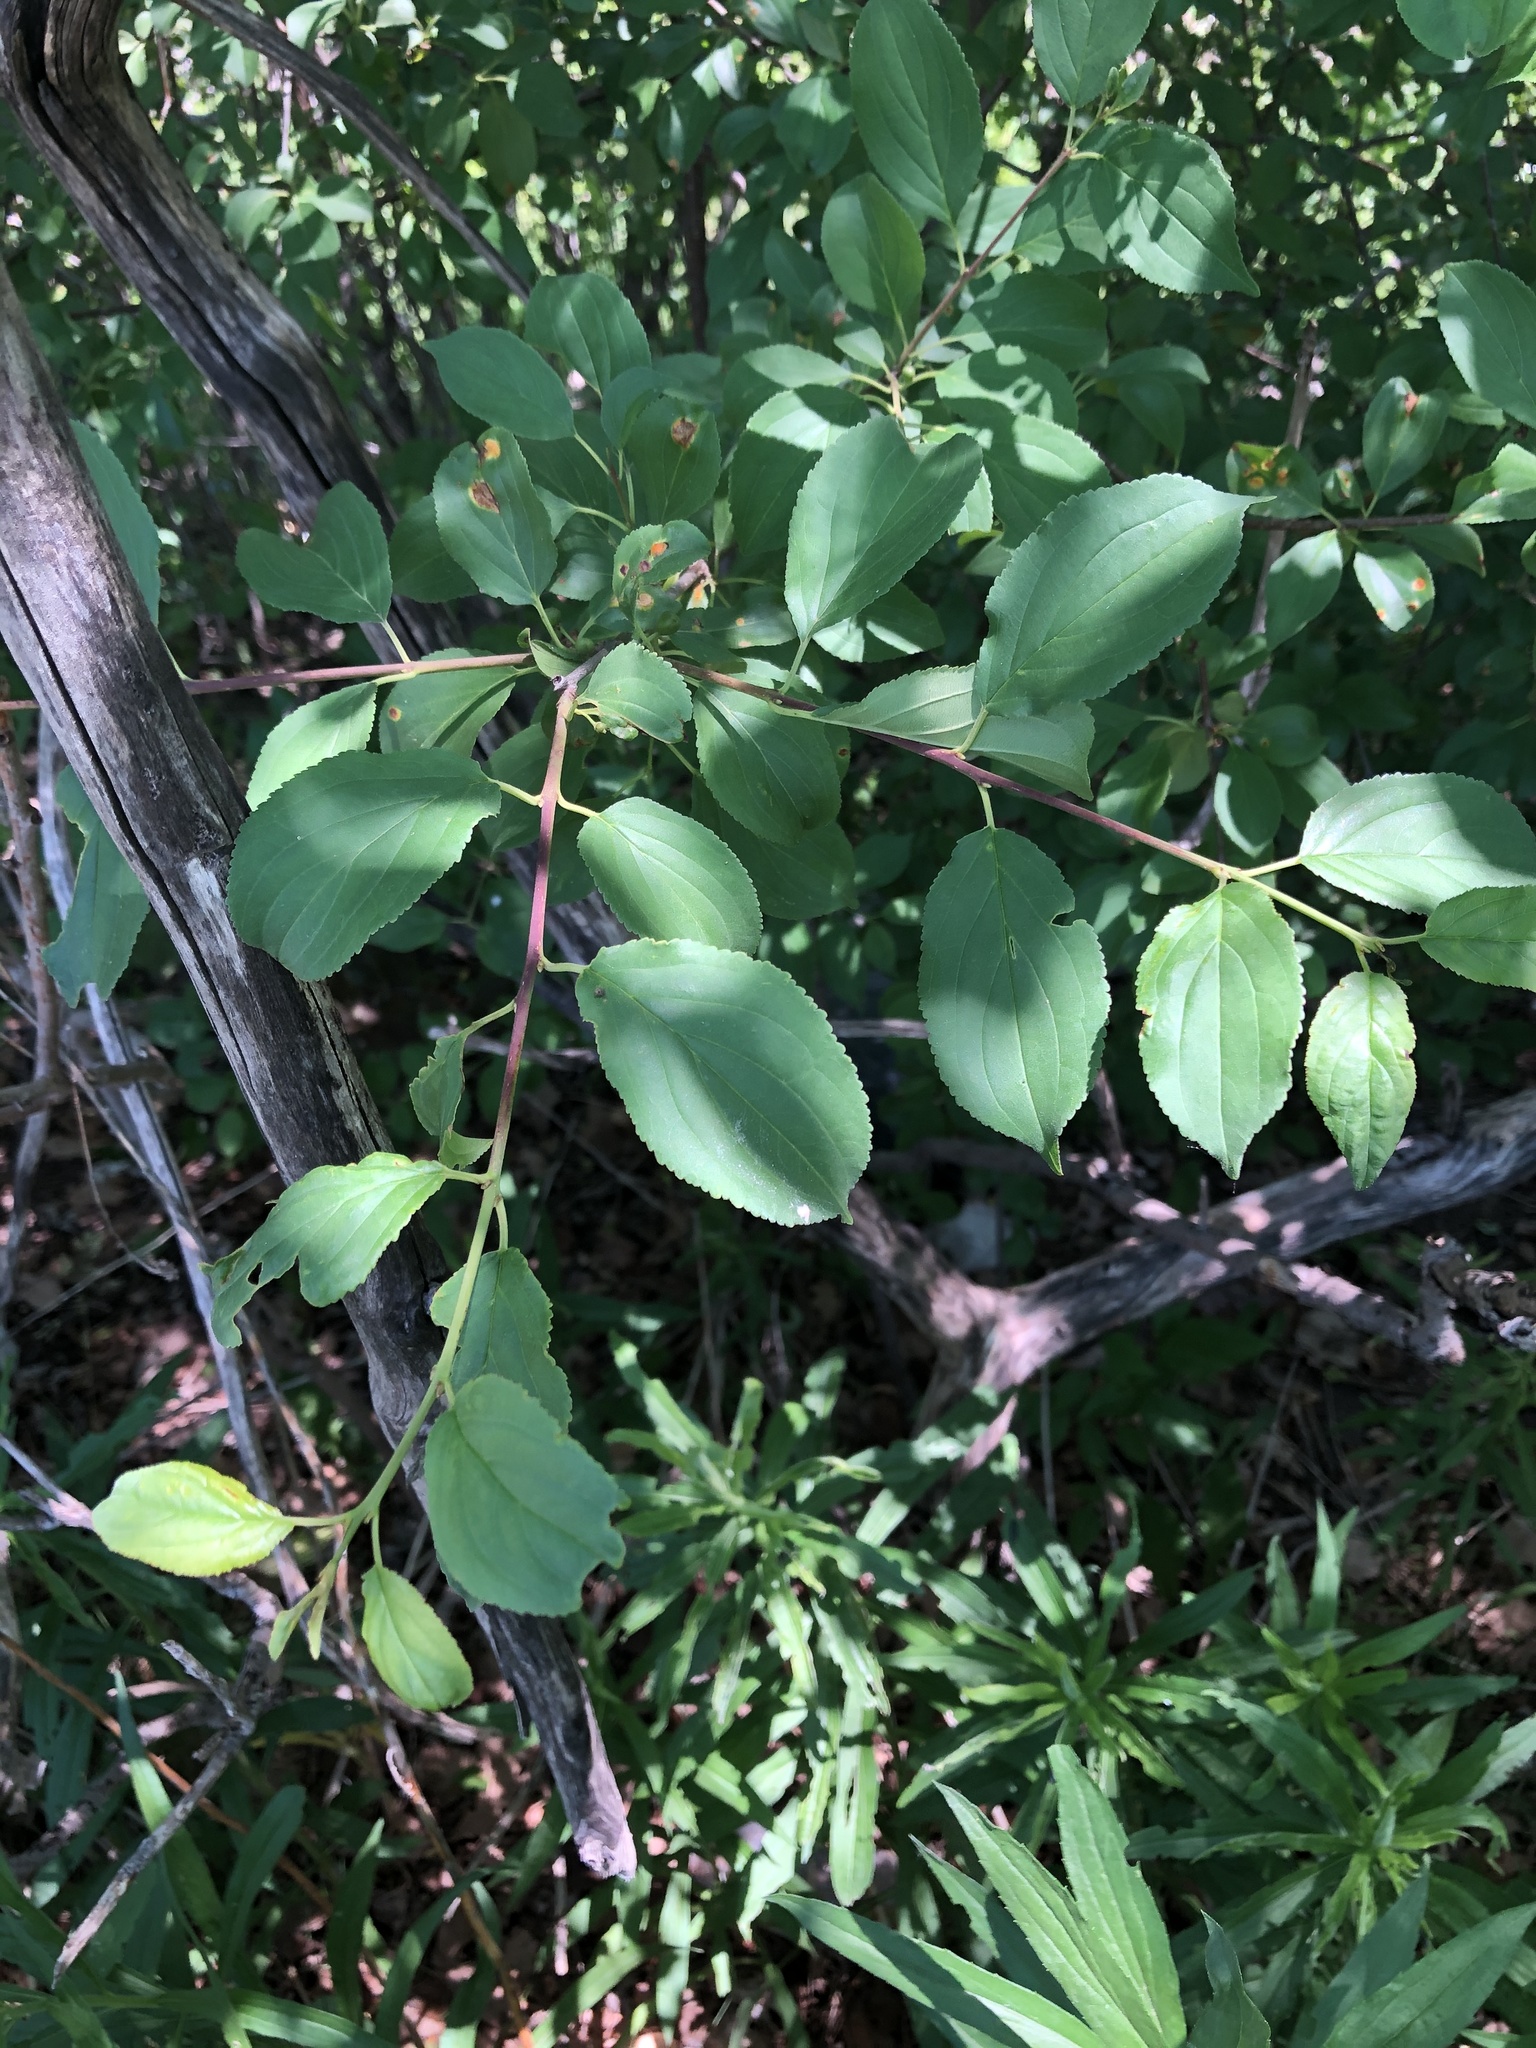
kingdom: Plantae
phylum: Tracheophyta
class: Magnoliopsida
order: Rosales
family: Rhamnaceae
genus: Rhamnus
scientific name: Rhamnus cathartica
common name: Common buckthorn
